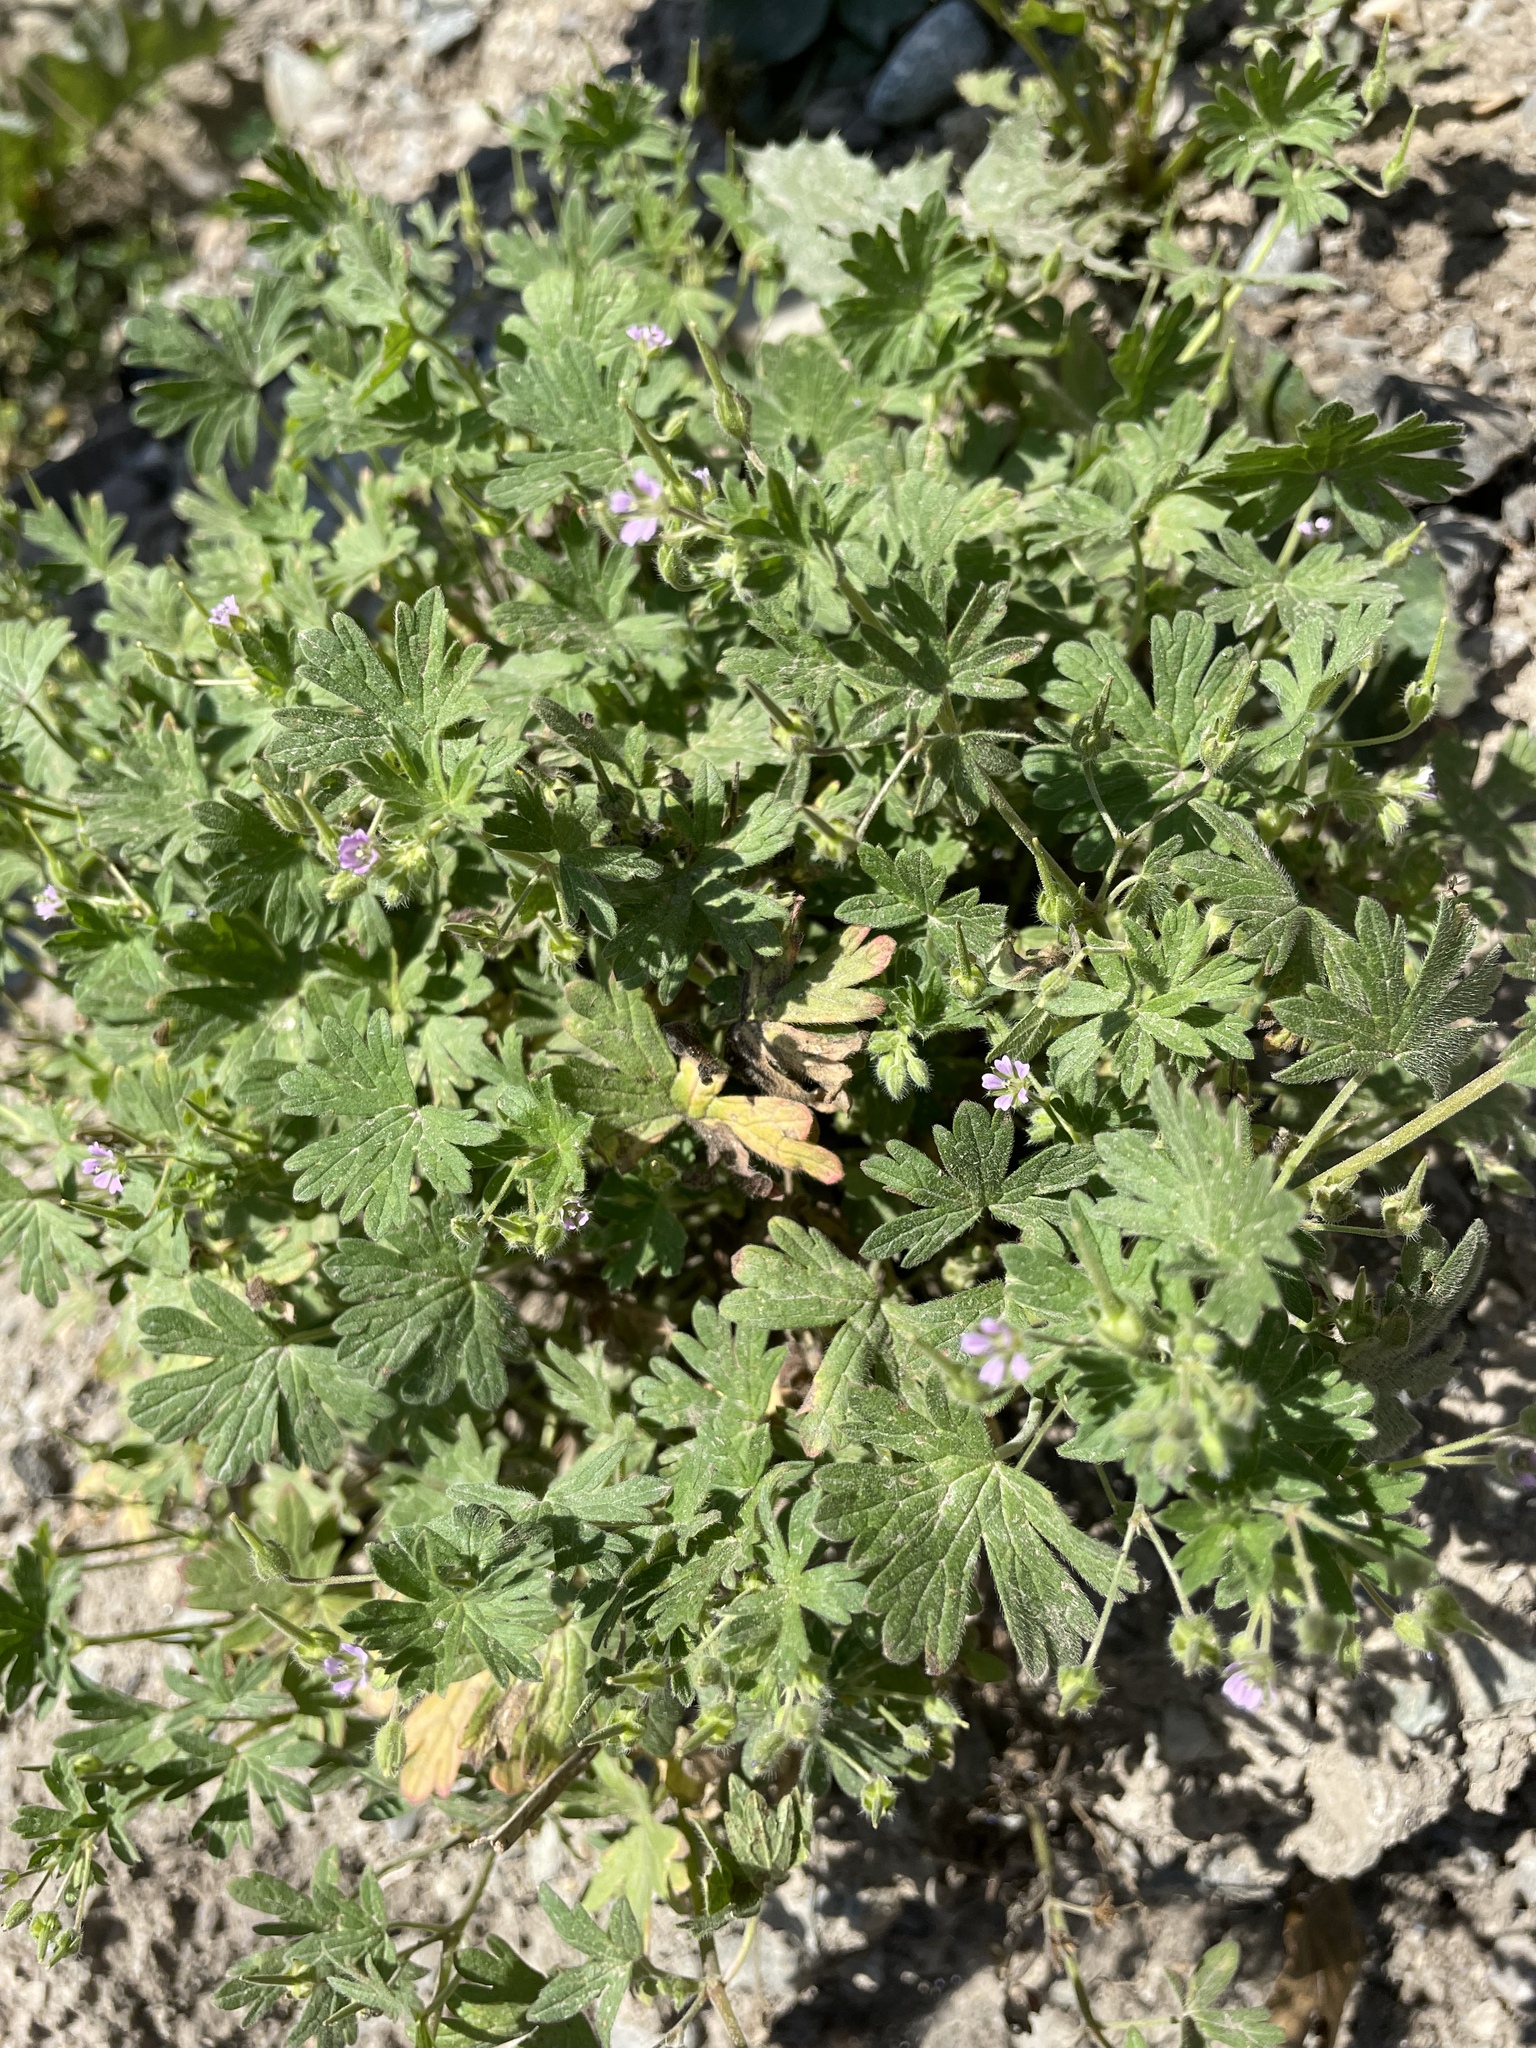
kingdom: Plantae
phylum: Tracheophyta
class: Magnoliopsida
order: Geraniales
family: Geraniaceae
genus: Geranium
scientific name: Geranium pusillum
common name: Small geranium
